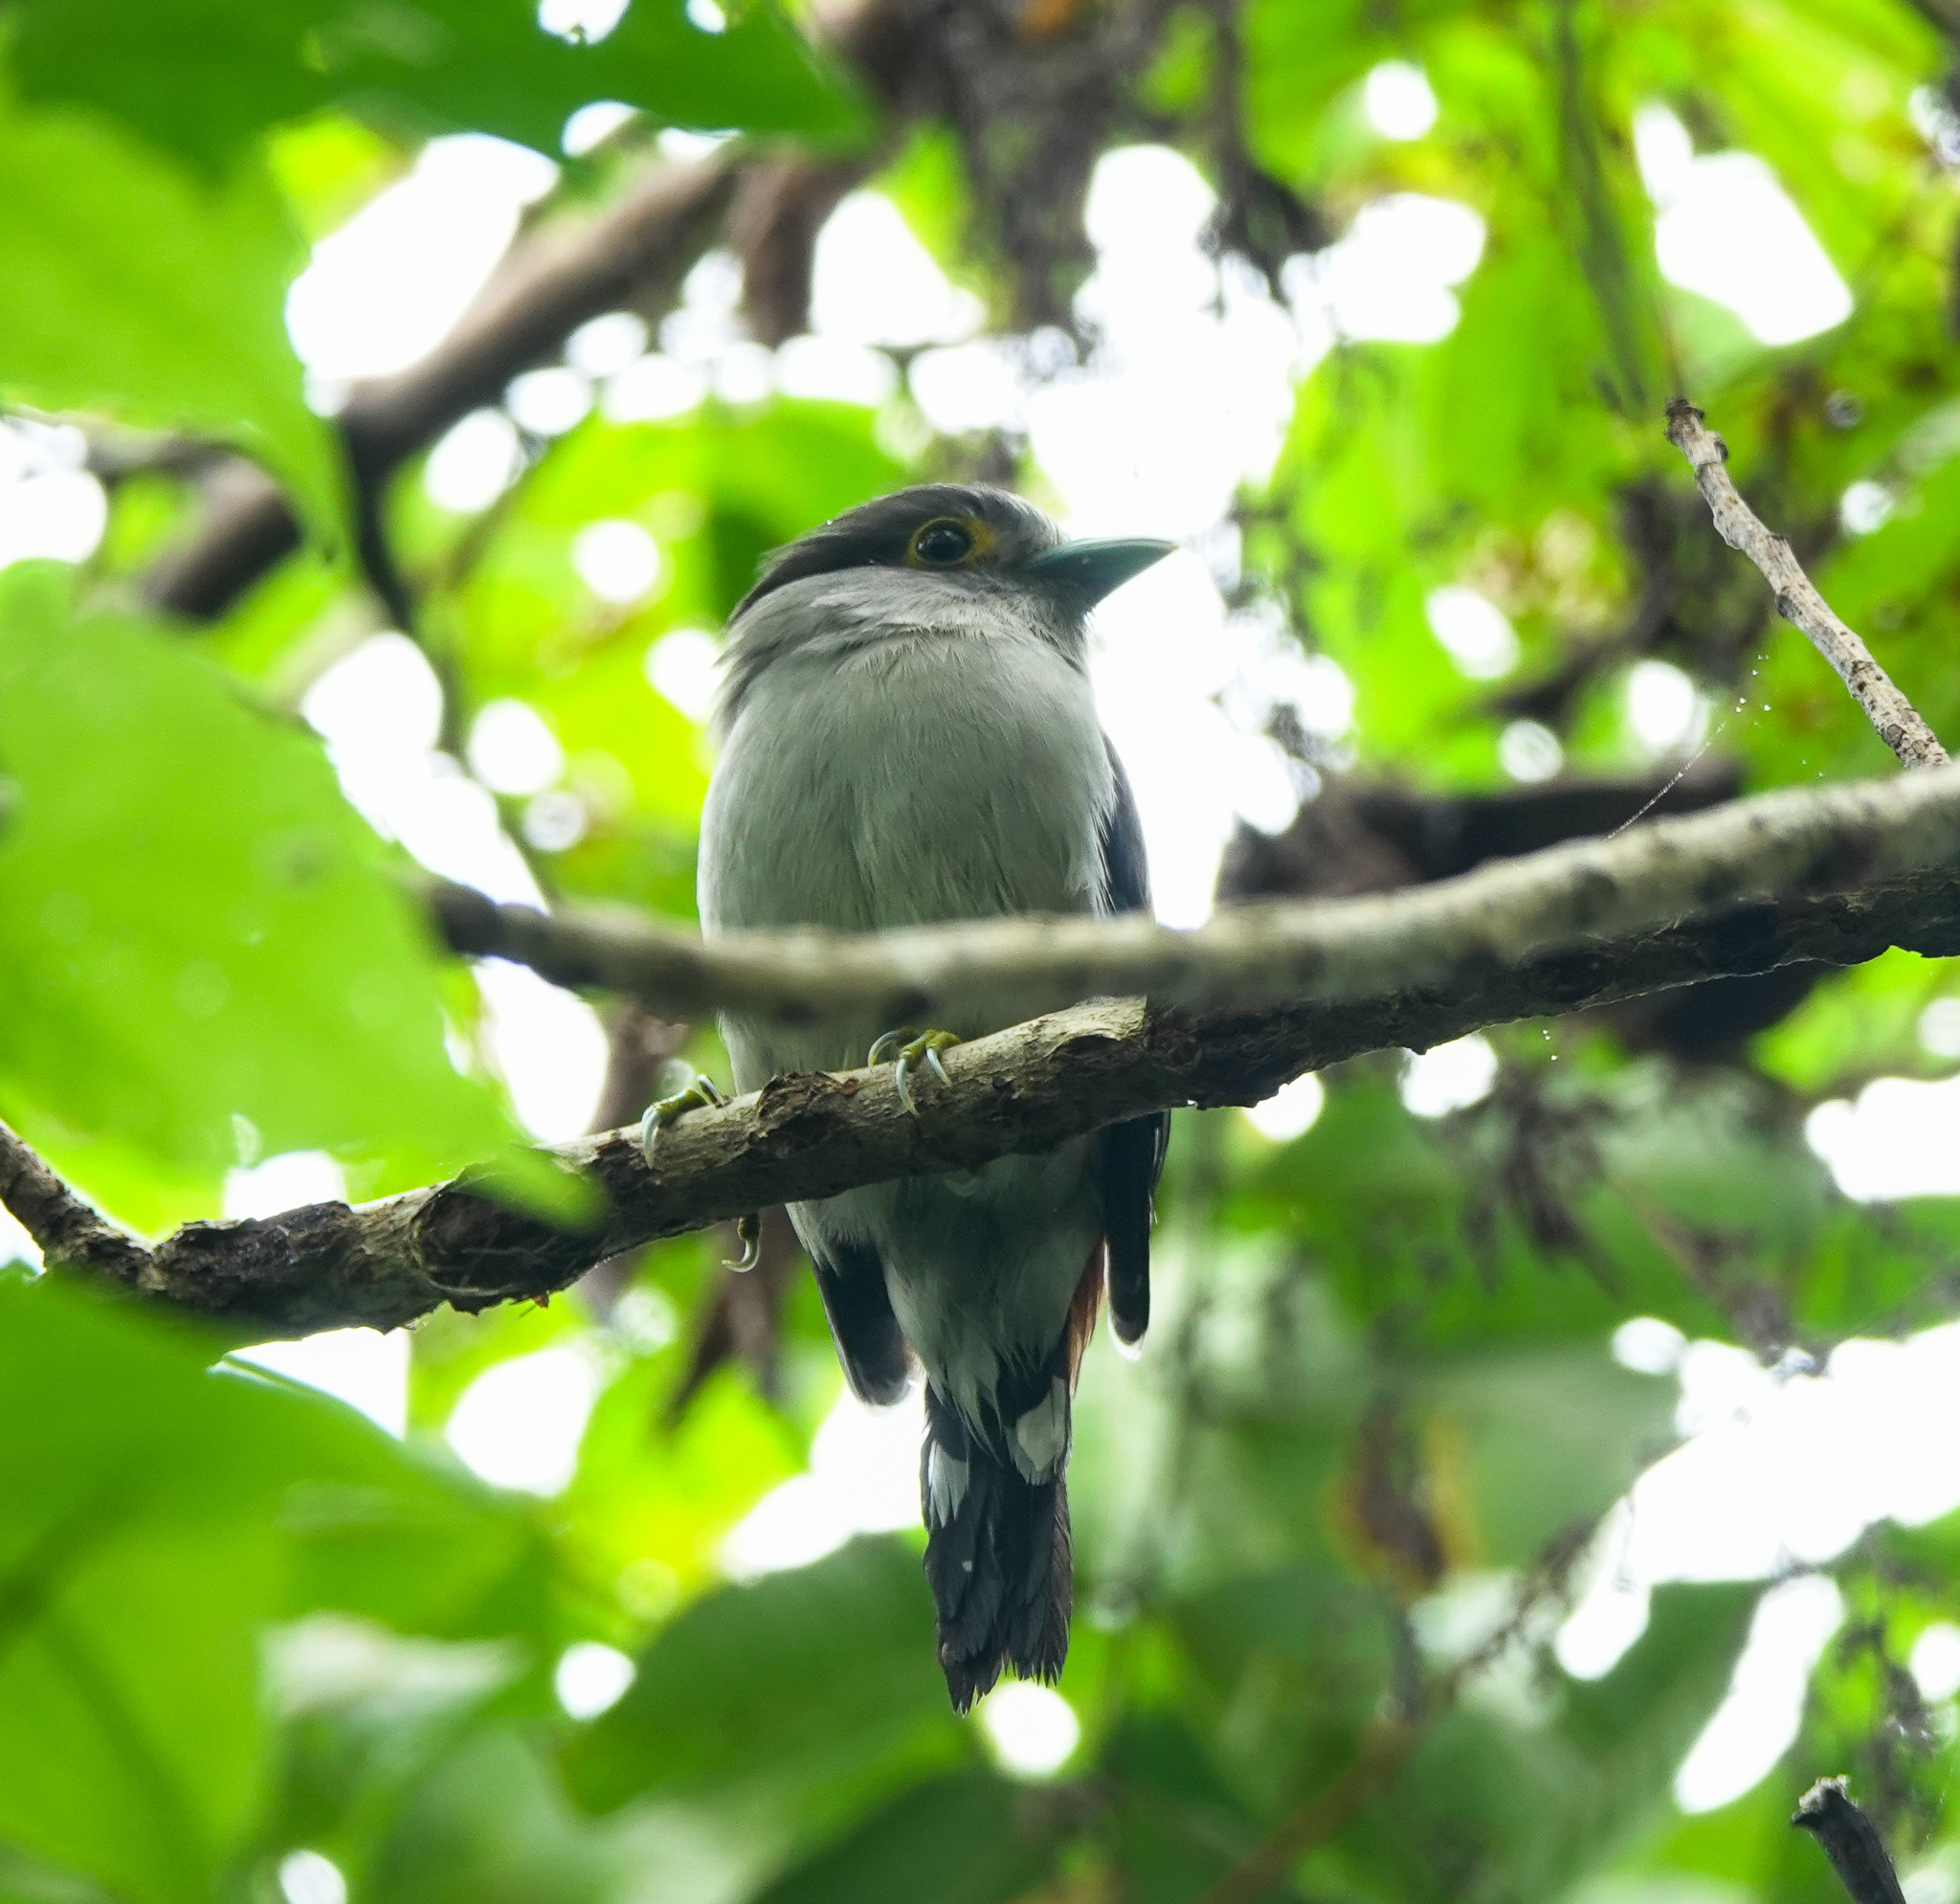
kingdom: Animalia
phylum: Chordata
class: Aves
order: Passeriformes
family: Eurylaimidae
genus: Serilophus
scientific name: Serilophus lunatus
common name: Silver-breasted broadbill
